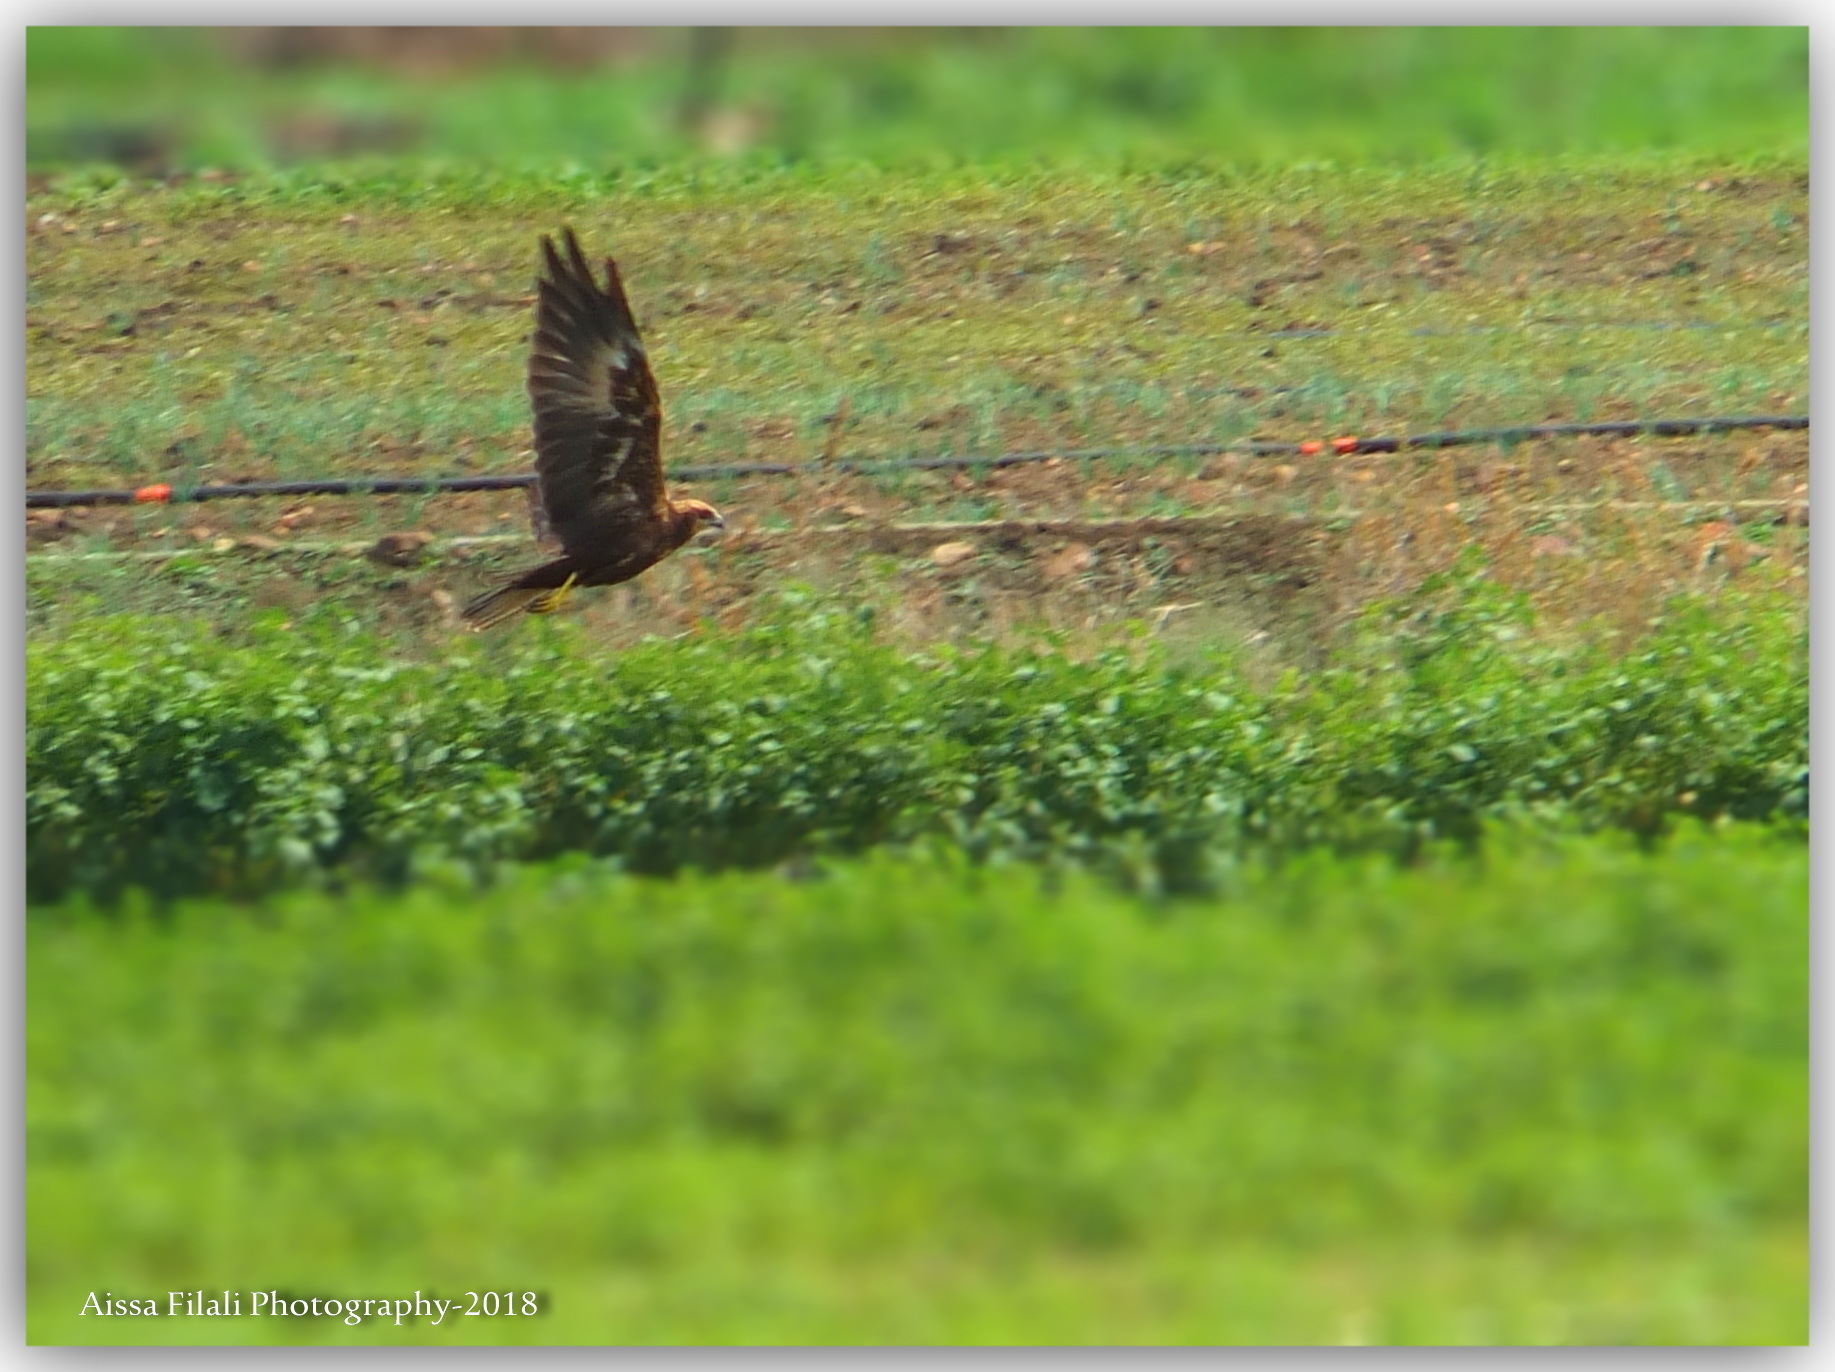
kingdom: Animalia
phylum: Chordata
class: Aves
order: Accipitriformes
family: Accipitridae
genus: Circus
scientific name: Circus aeruginosus
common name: Western marsh harrier
